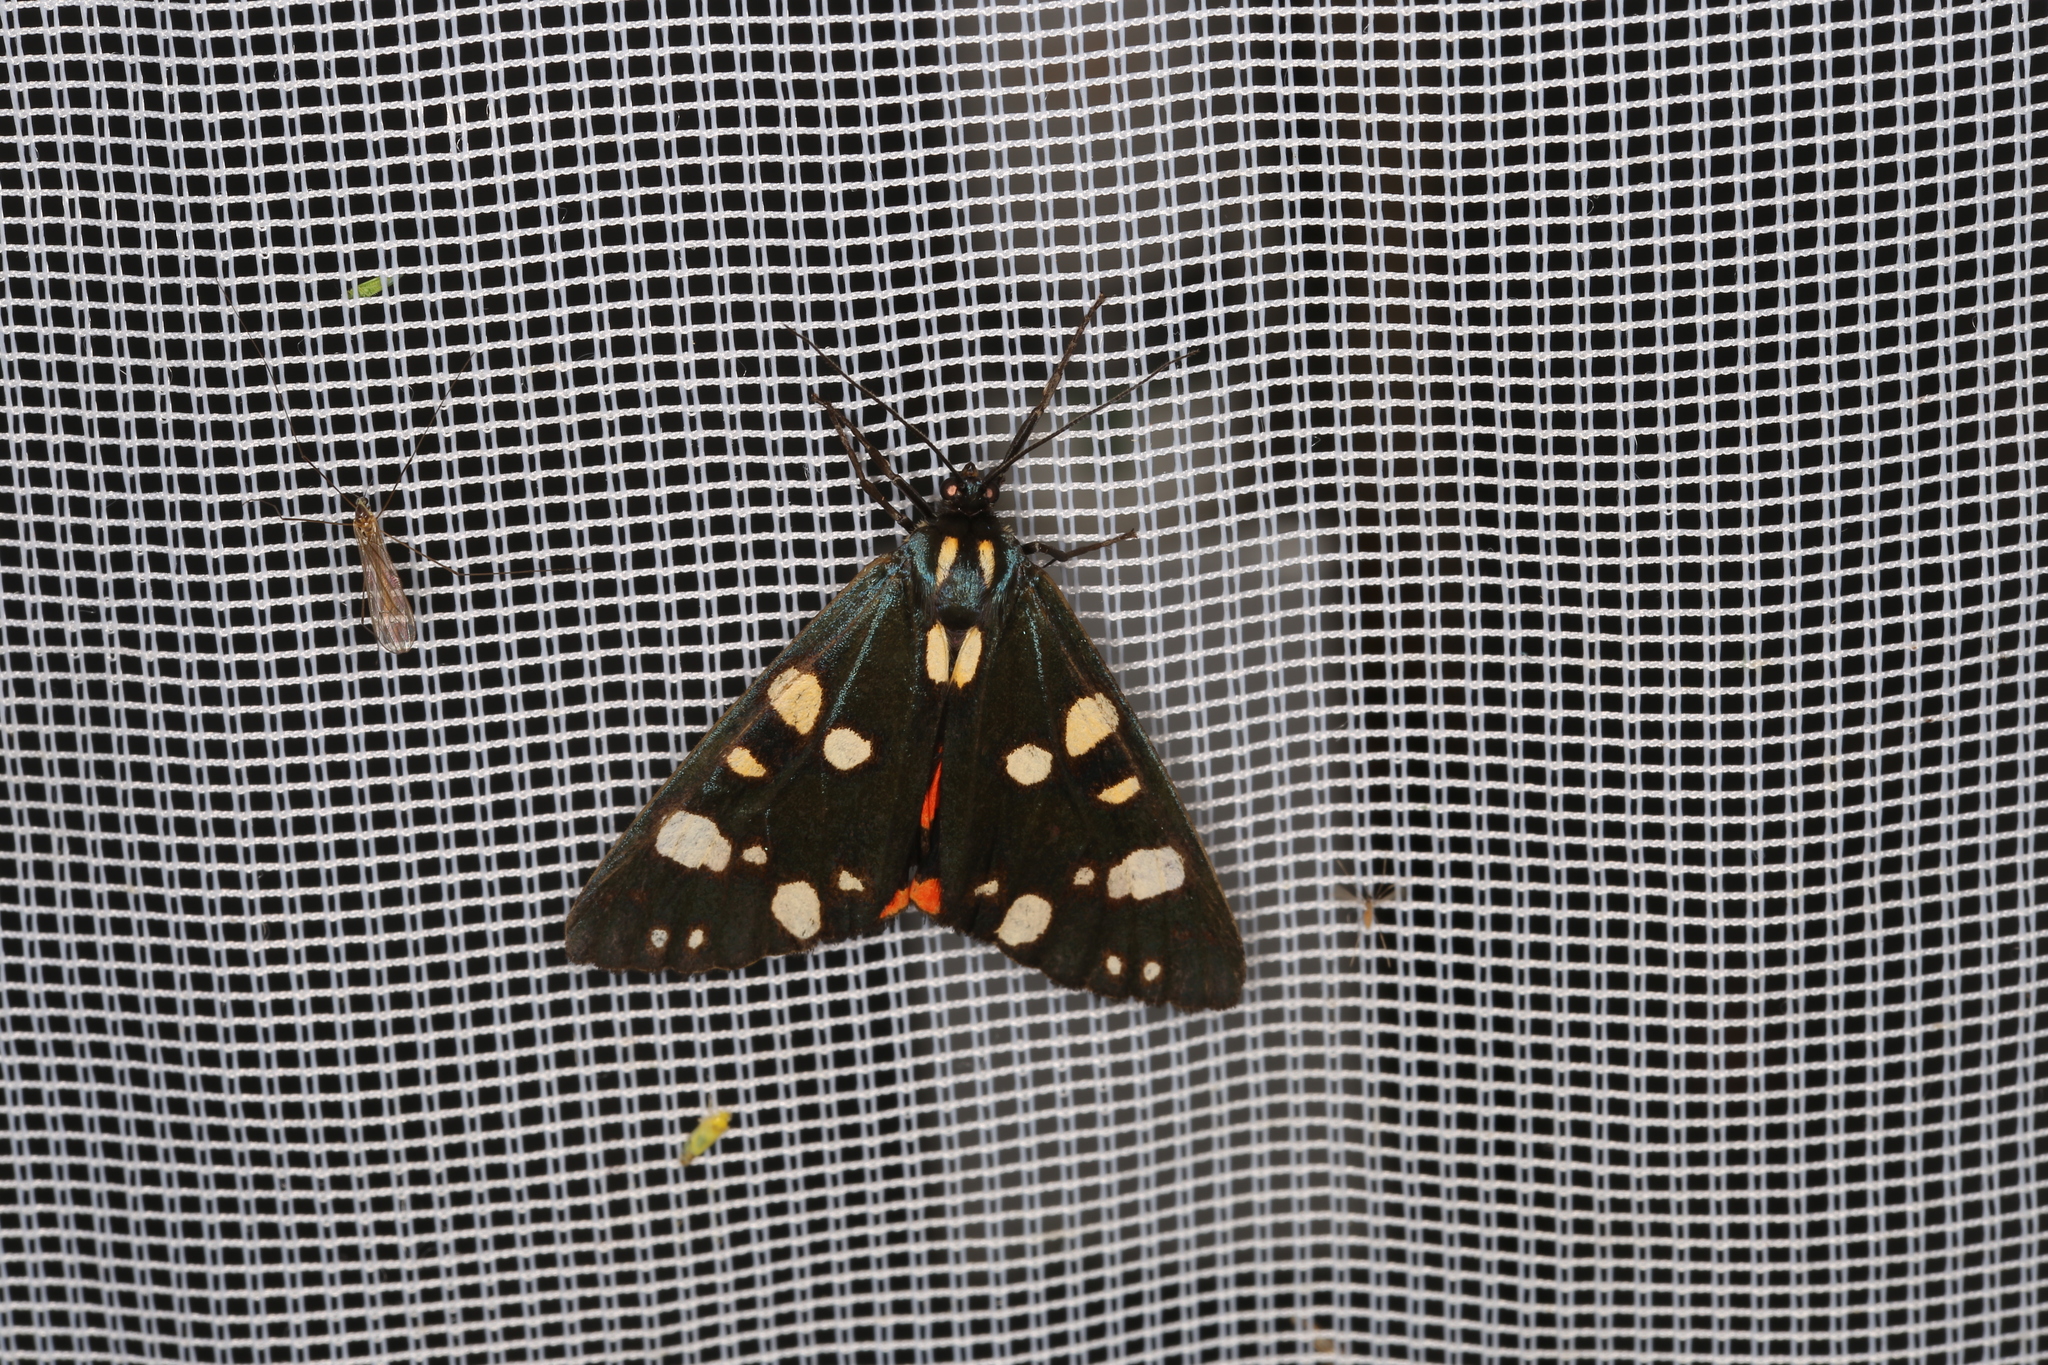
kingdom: Animalia
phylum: Arthropoda
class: Insecta
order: Lepidoptera
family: Erebidae
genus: Callimorpha
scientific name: Callimorpha dominula
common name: Scarlet tiger
